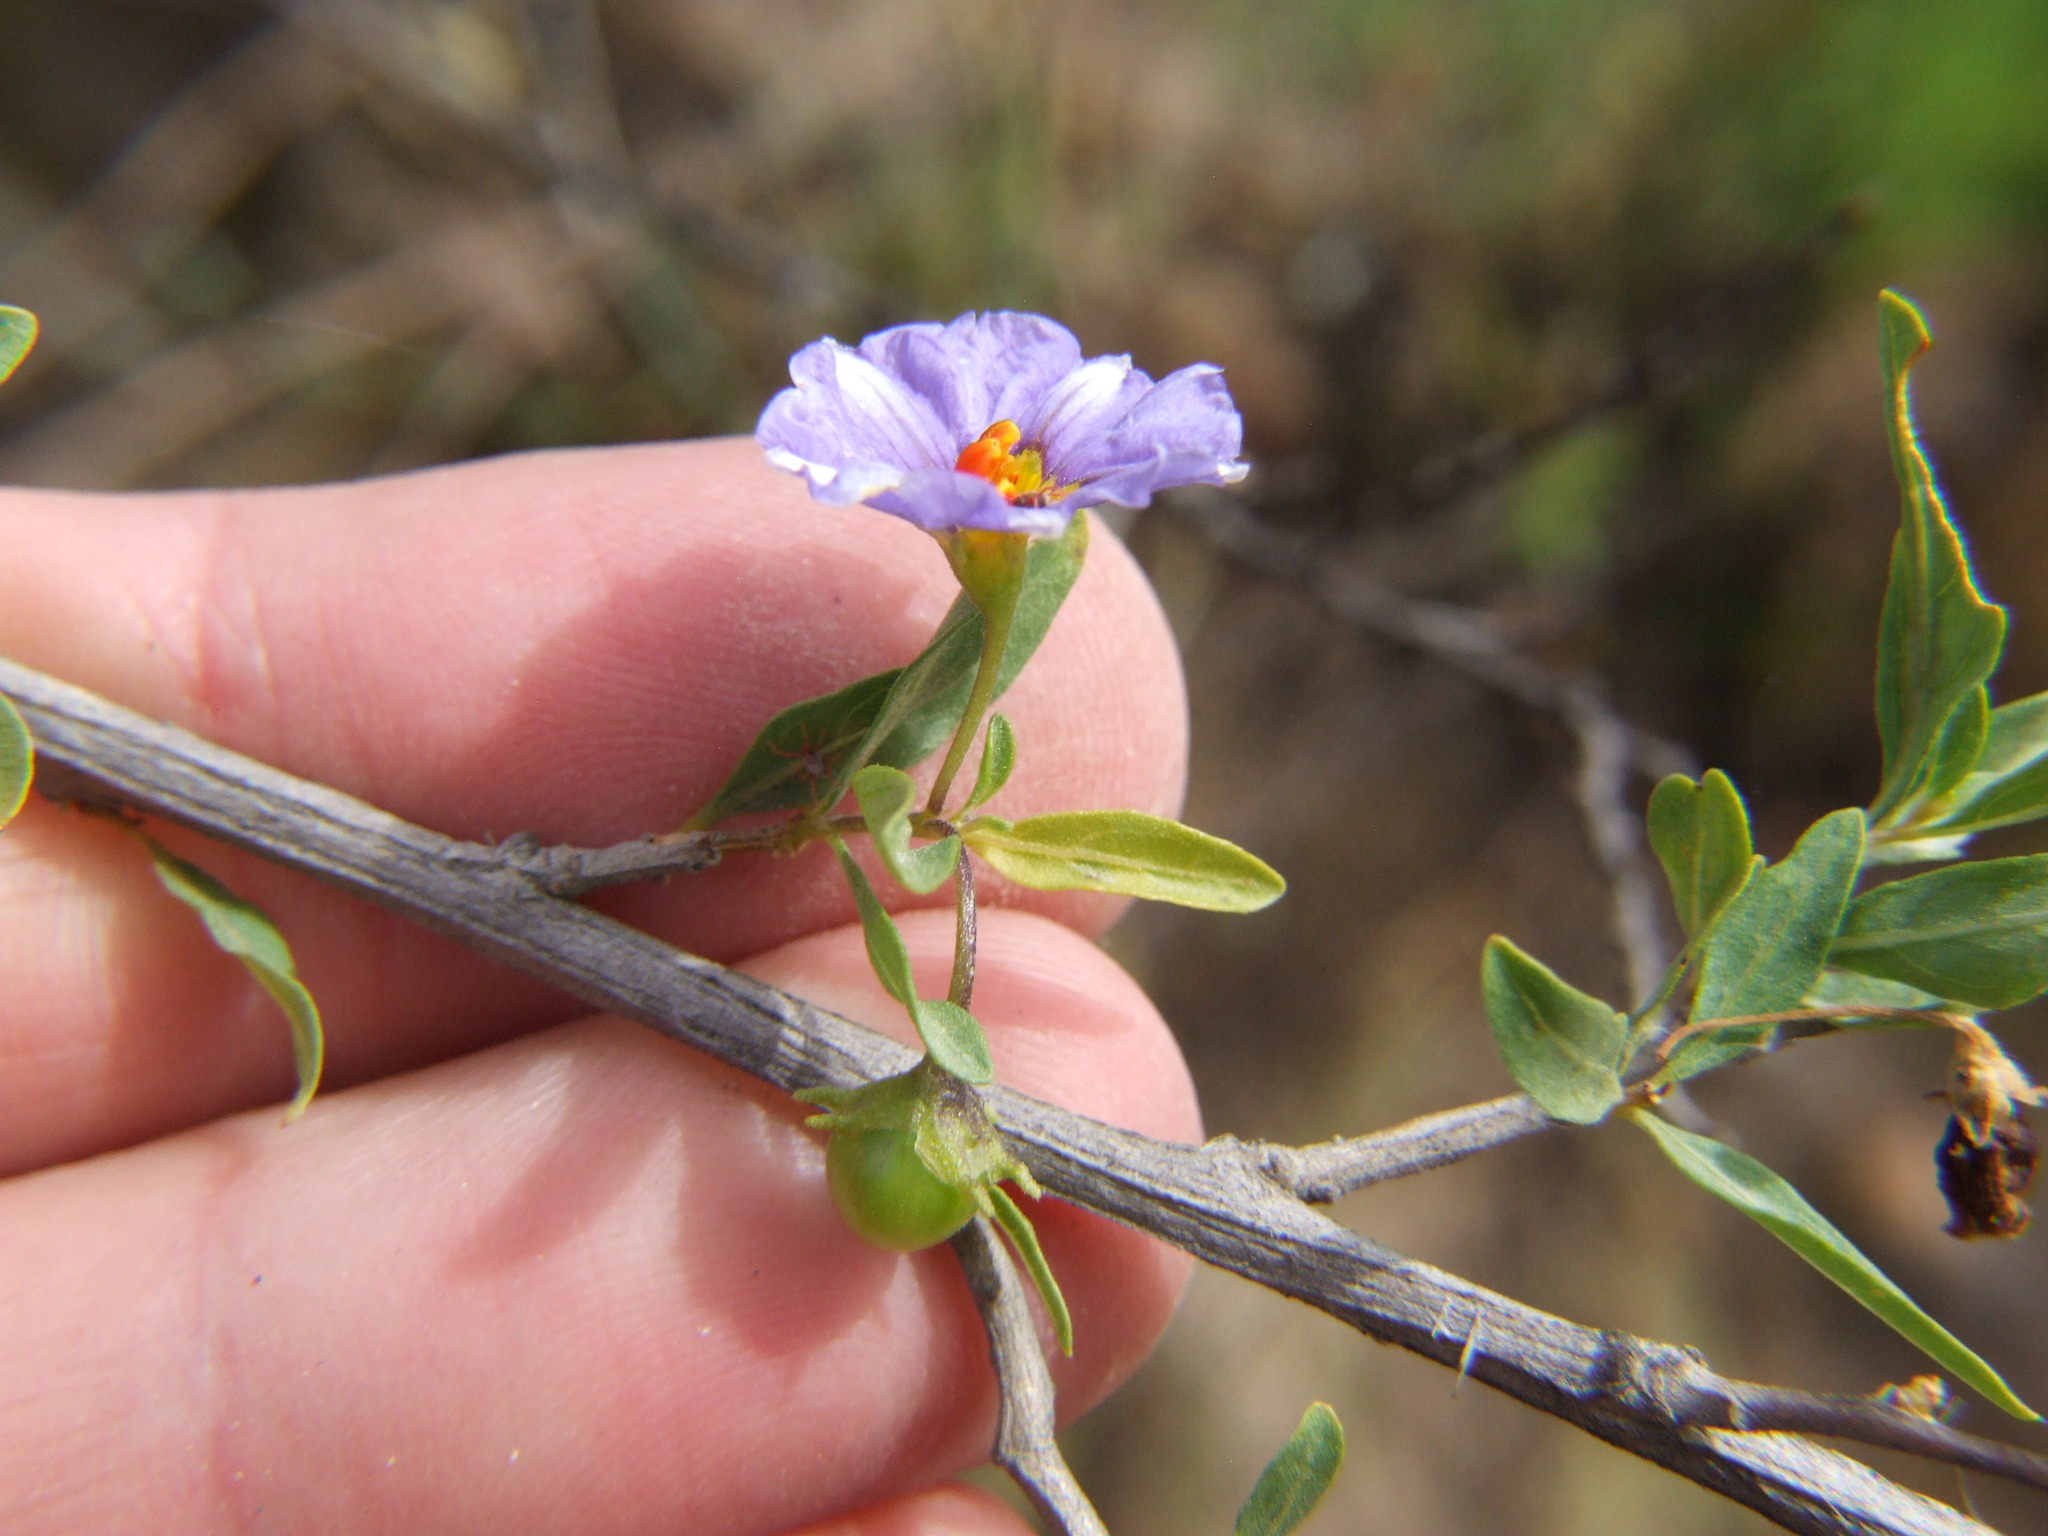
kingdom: Plantae
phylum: Tracheophyta
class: Magnoliopsida
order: Solanales
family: Solanaceae
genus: Lycianthes
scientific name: Lycianthes lycioides
